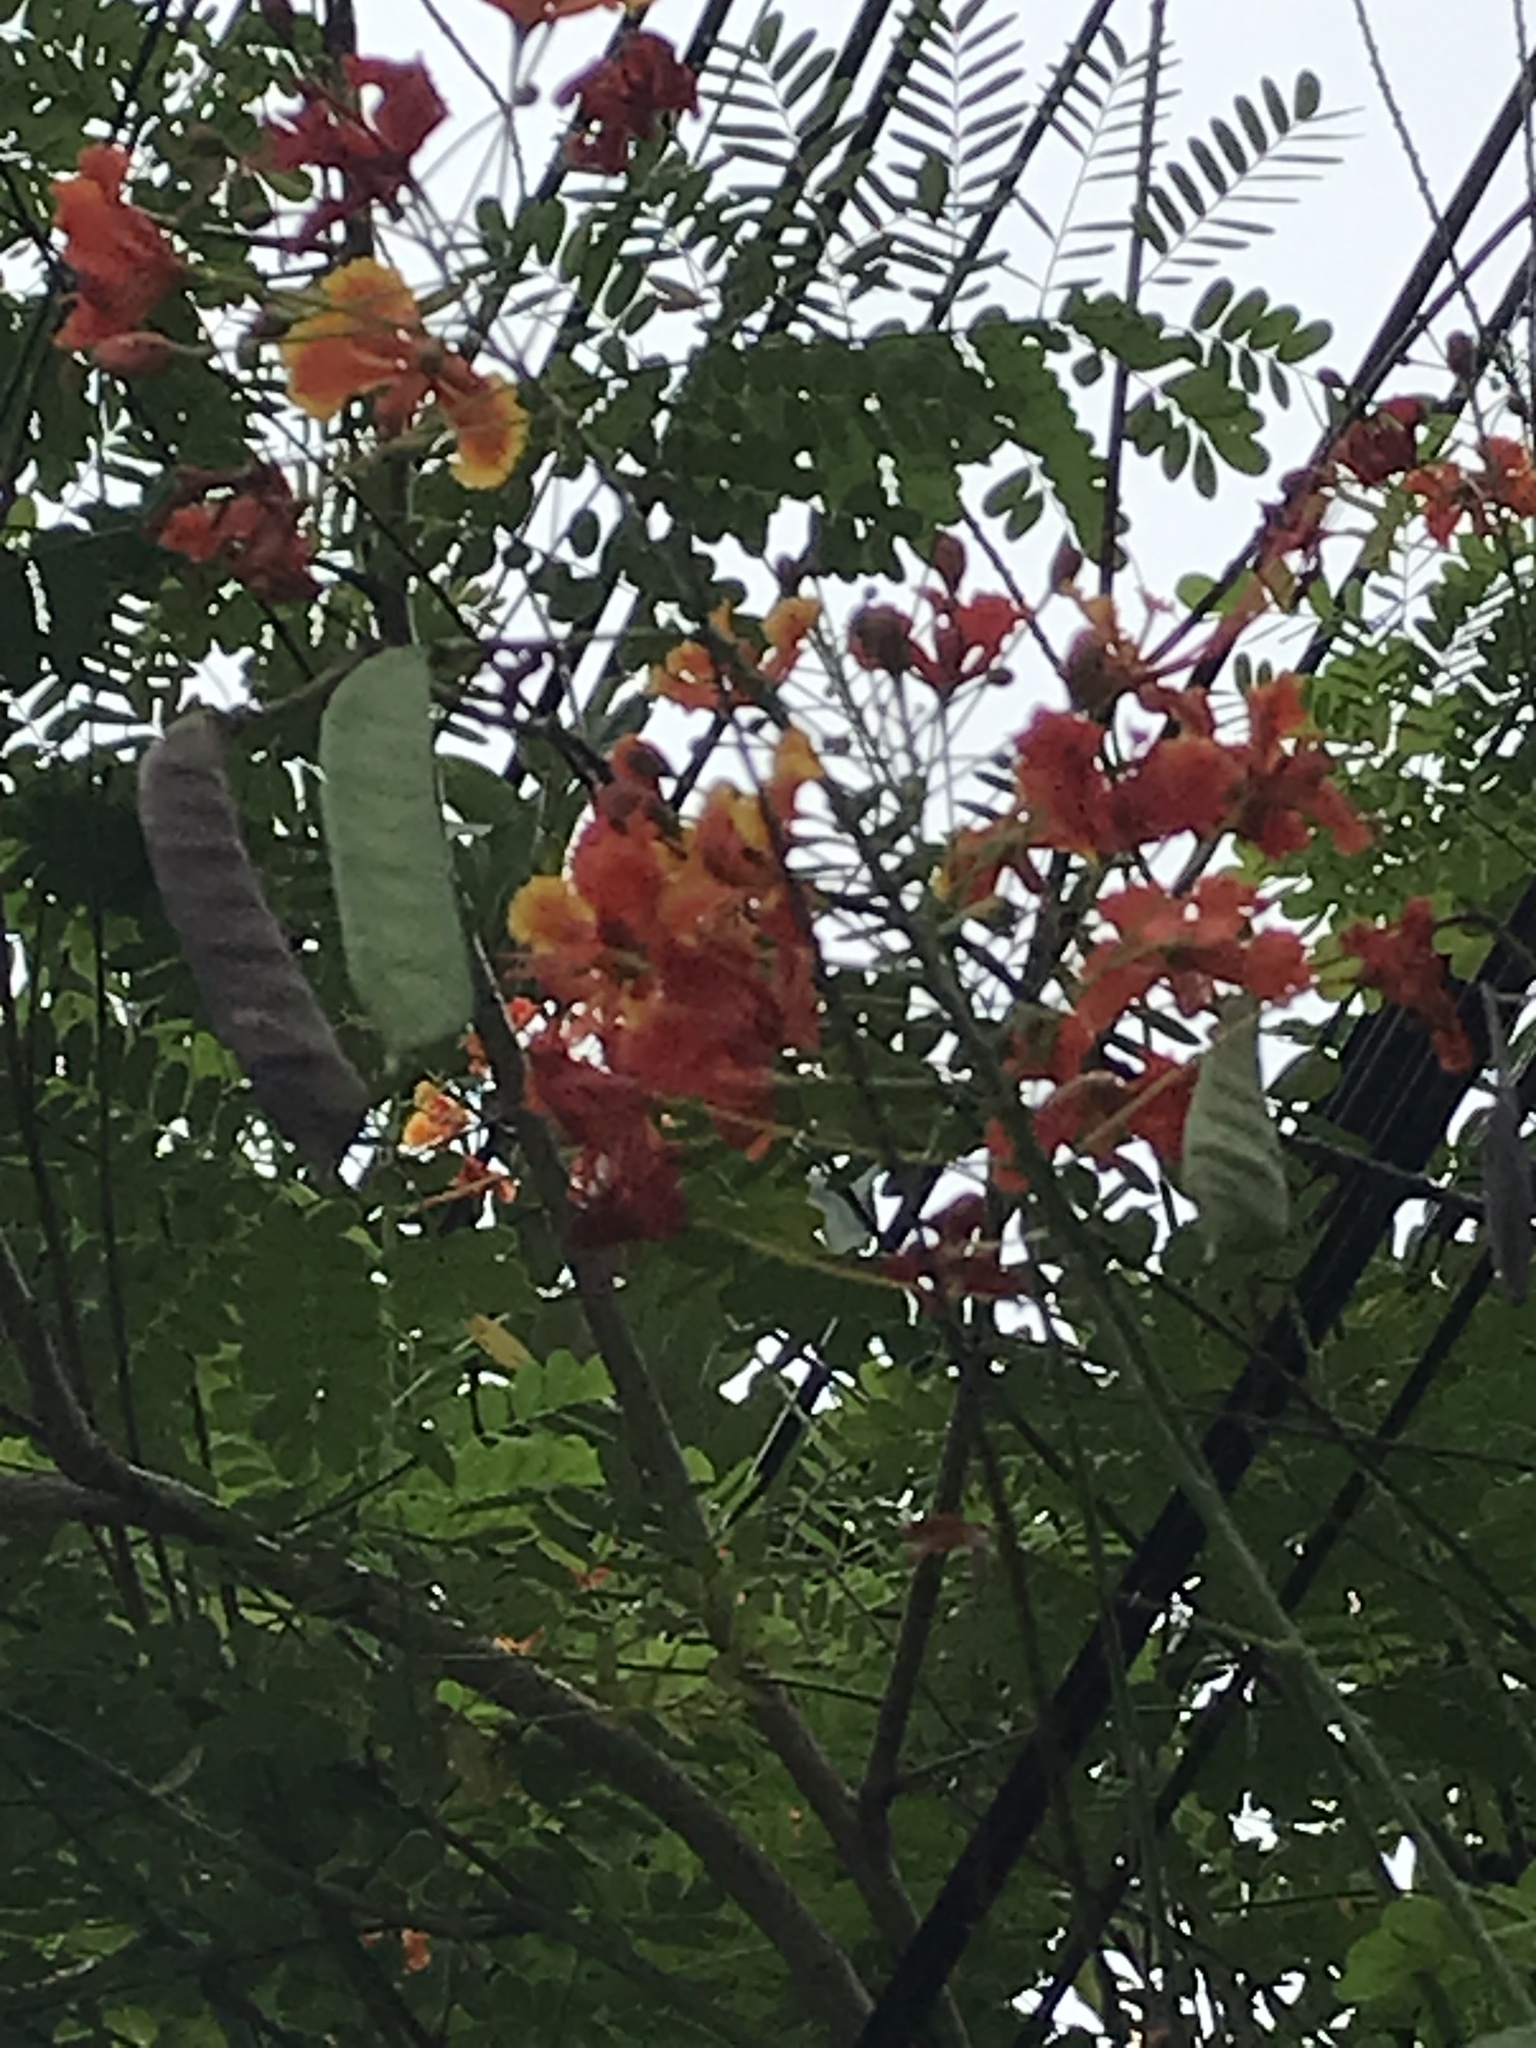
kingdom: Plantae
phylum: Tracheophyta
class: Magnoliopsida
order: Fabales
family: Fabaceae
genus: Caesalpinia
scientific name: Caesalpinia pulcherrima
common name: Pride-of-barbados
